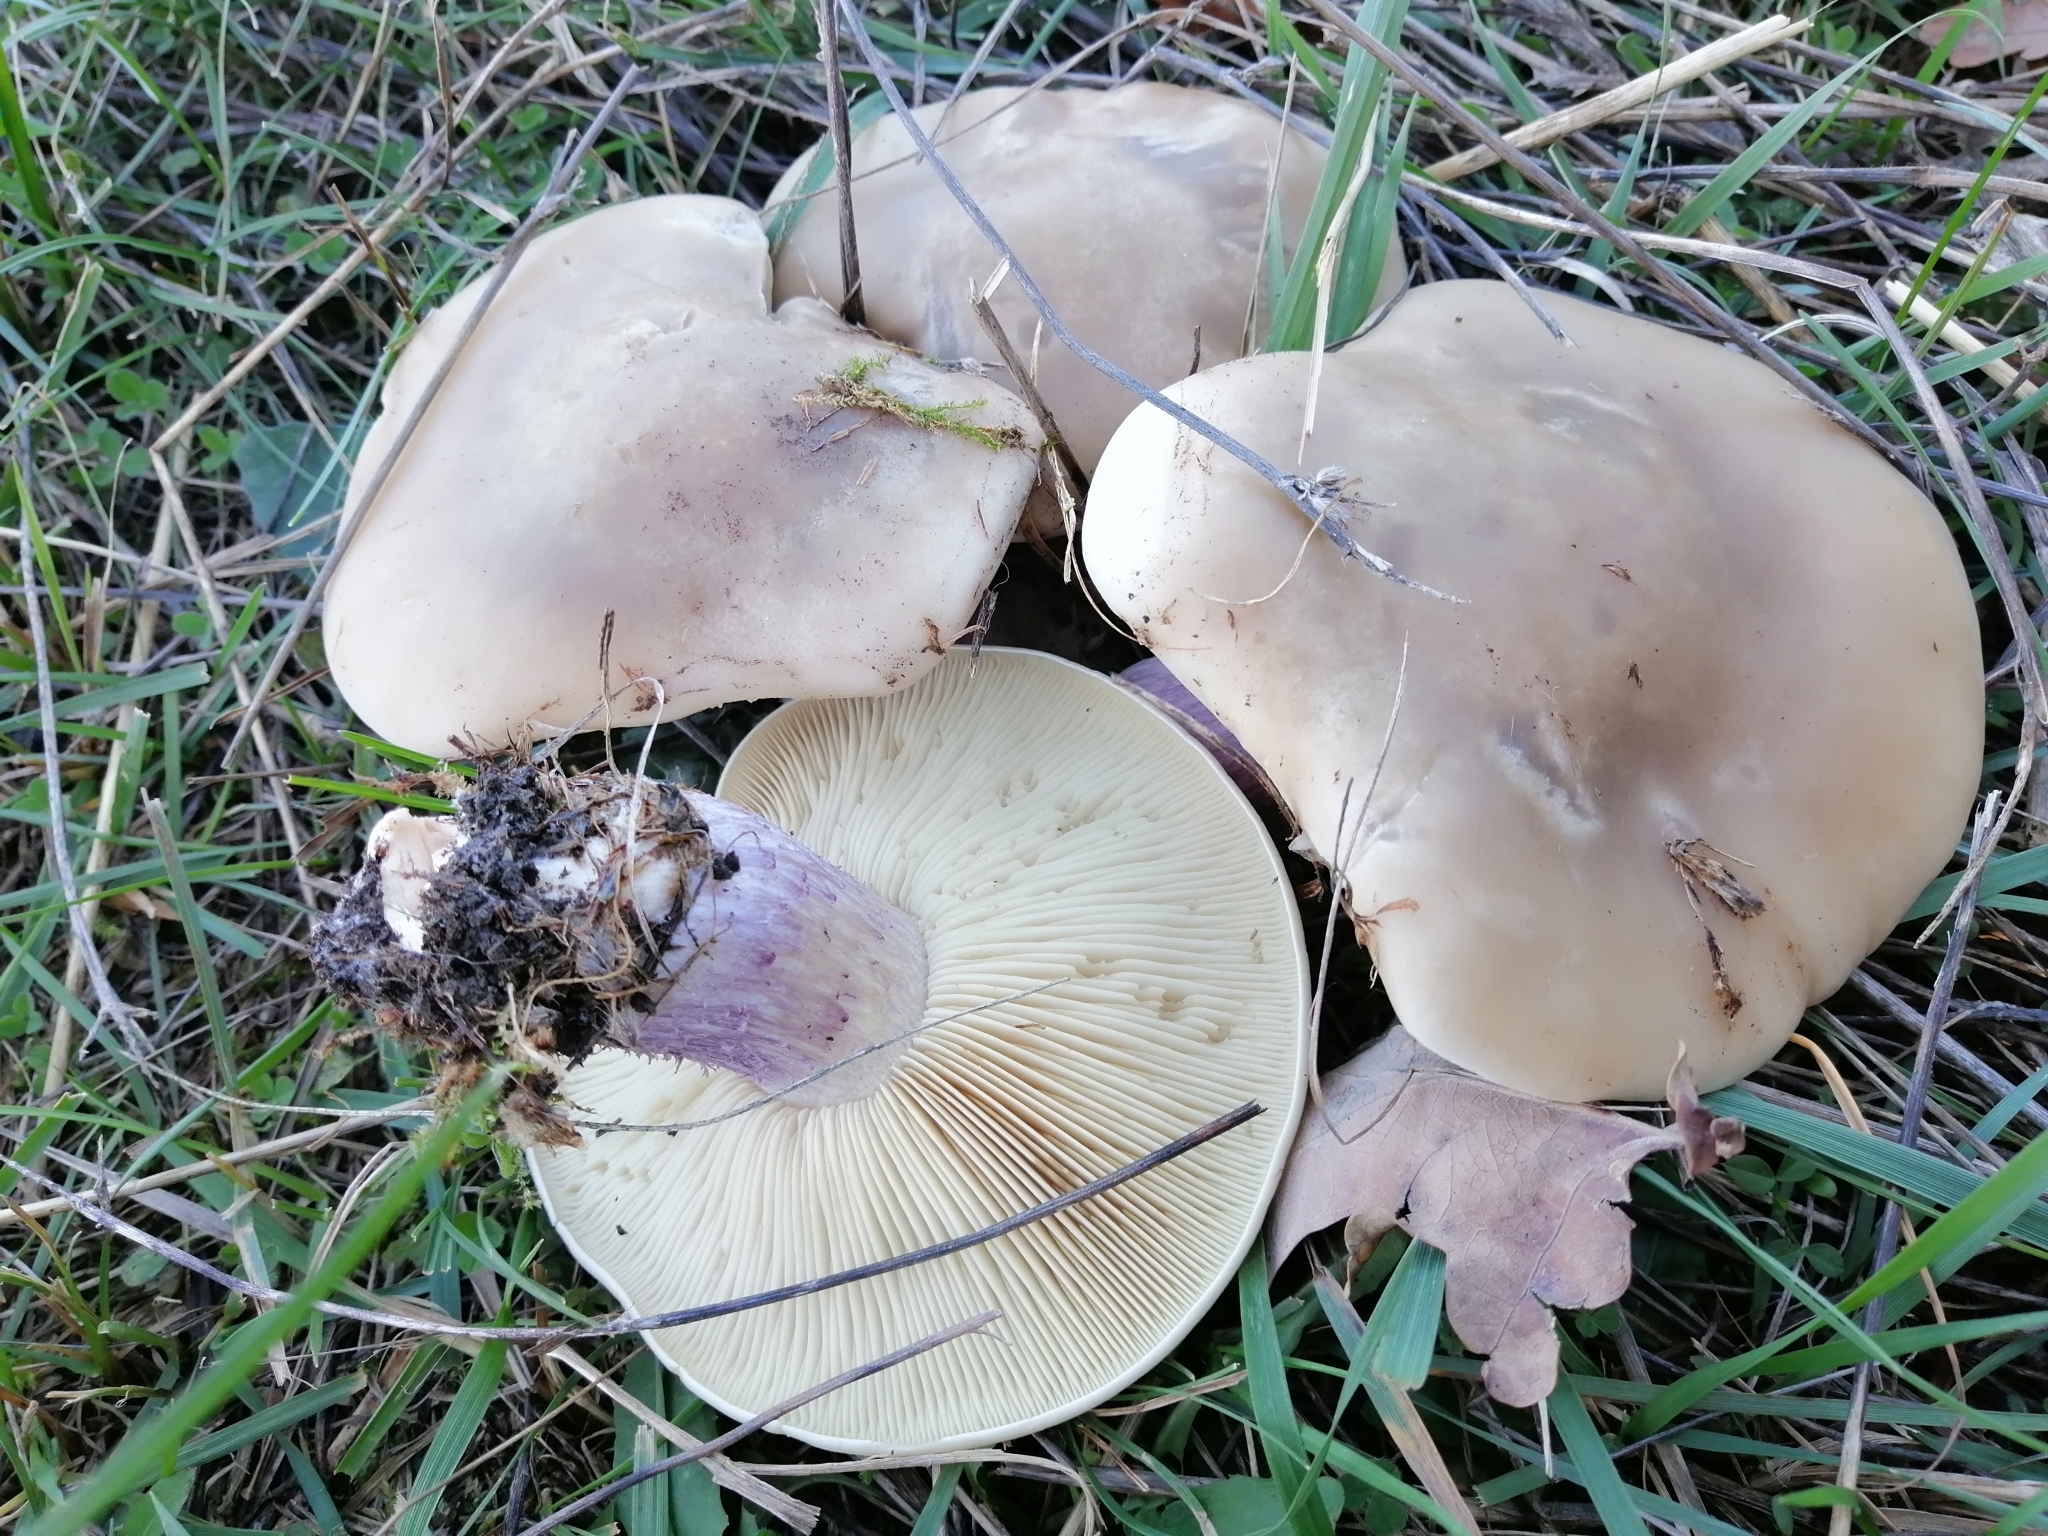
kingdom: Fungi
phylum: Basidiomycota
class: Agaricomycetes
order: Agaricales
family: Omphalotaceae
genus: Collybiopsis
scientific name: Collybiopsis peronata
